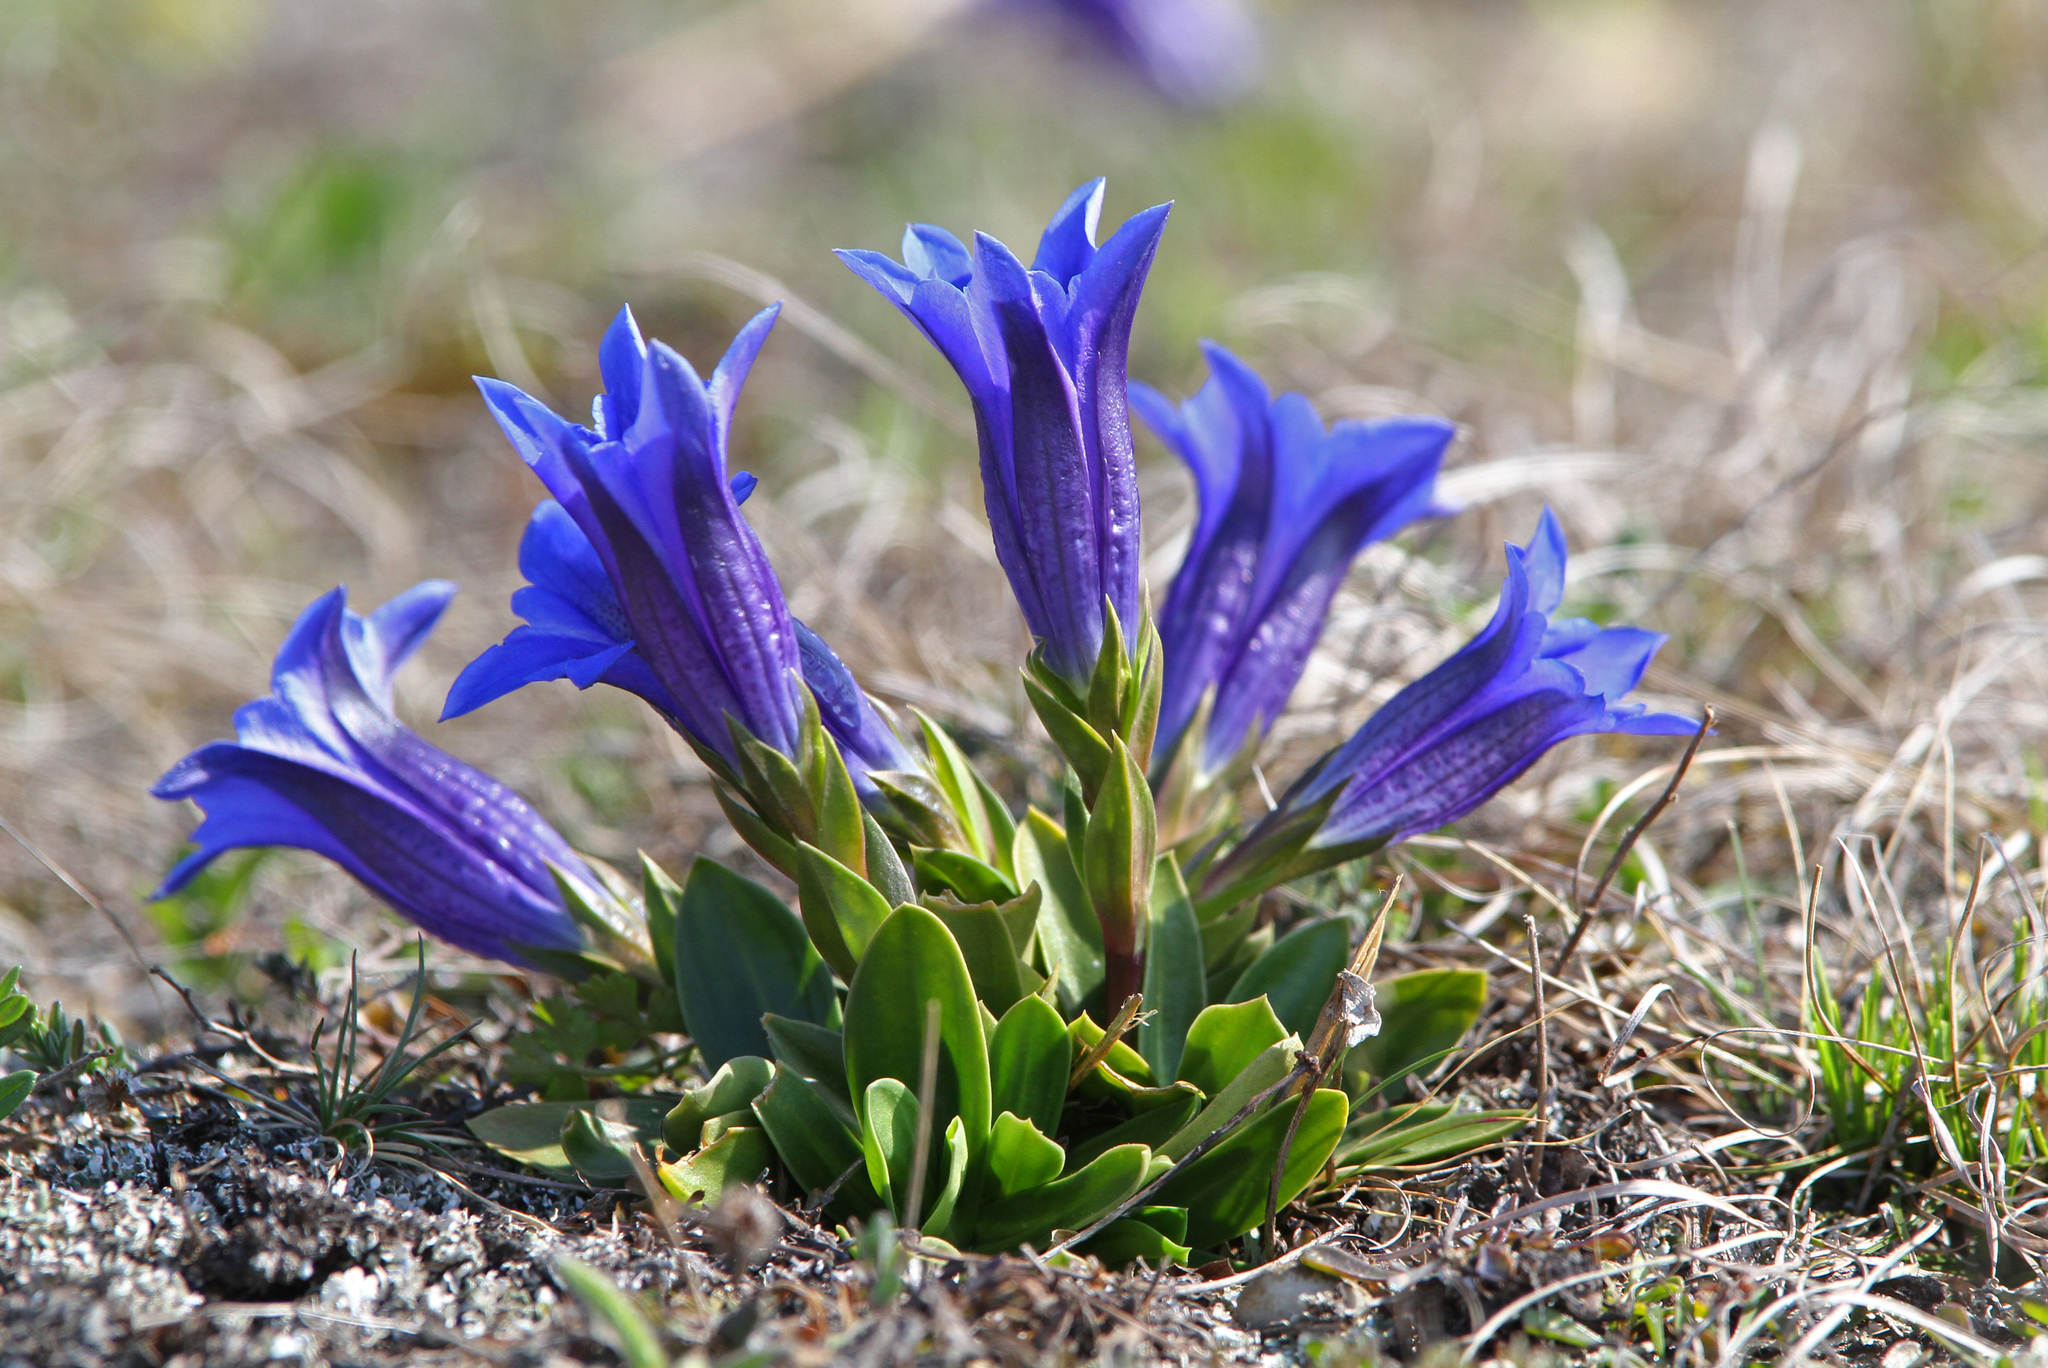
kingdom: Plantae
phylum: Tracheophyta
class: Magnoliopsida
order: Gentianales
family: Gentianaceae
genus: Gentiana
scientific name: Gentiana clusii
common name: Trumpet gentian
